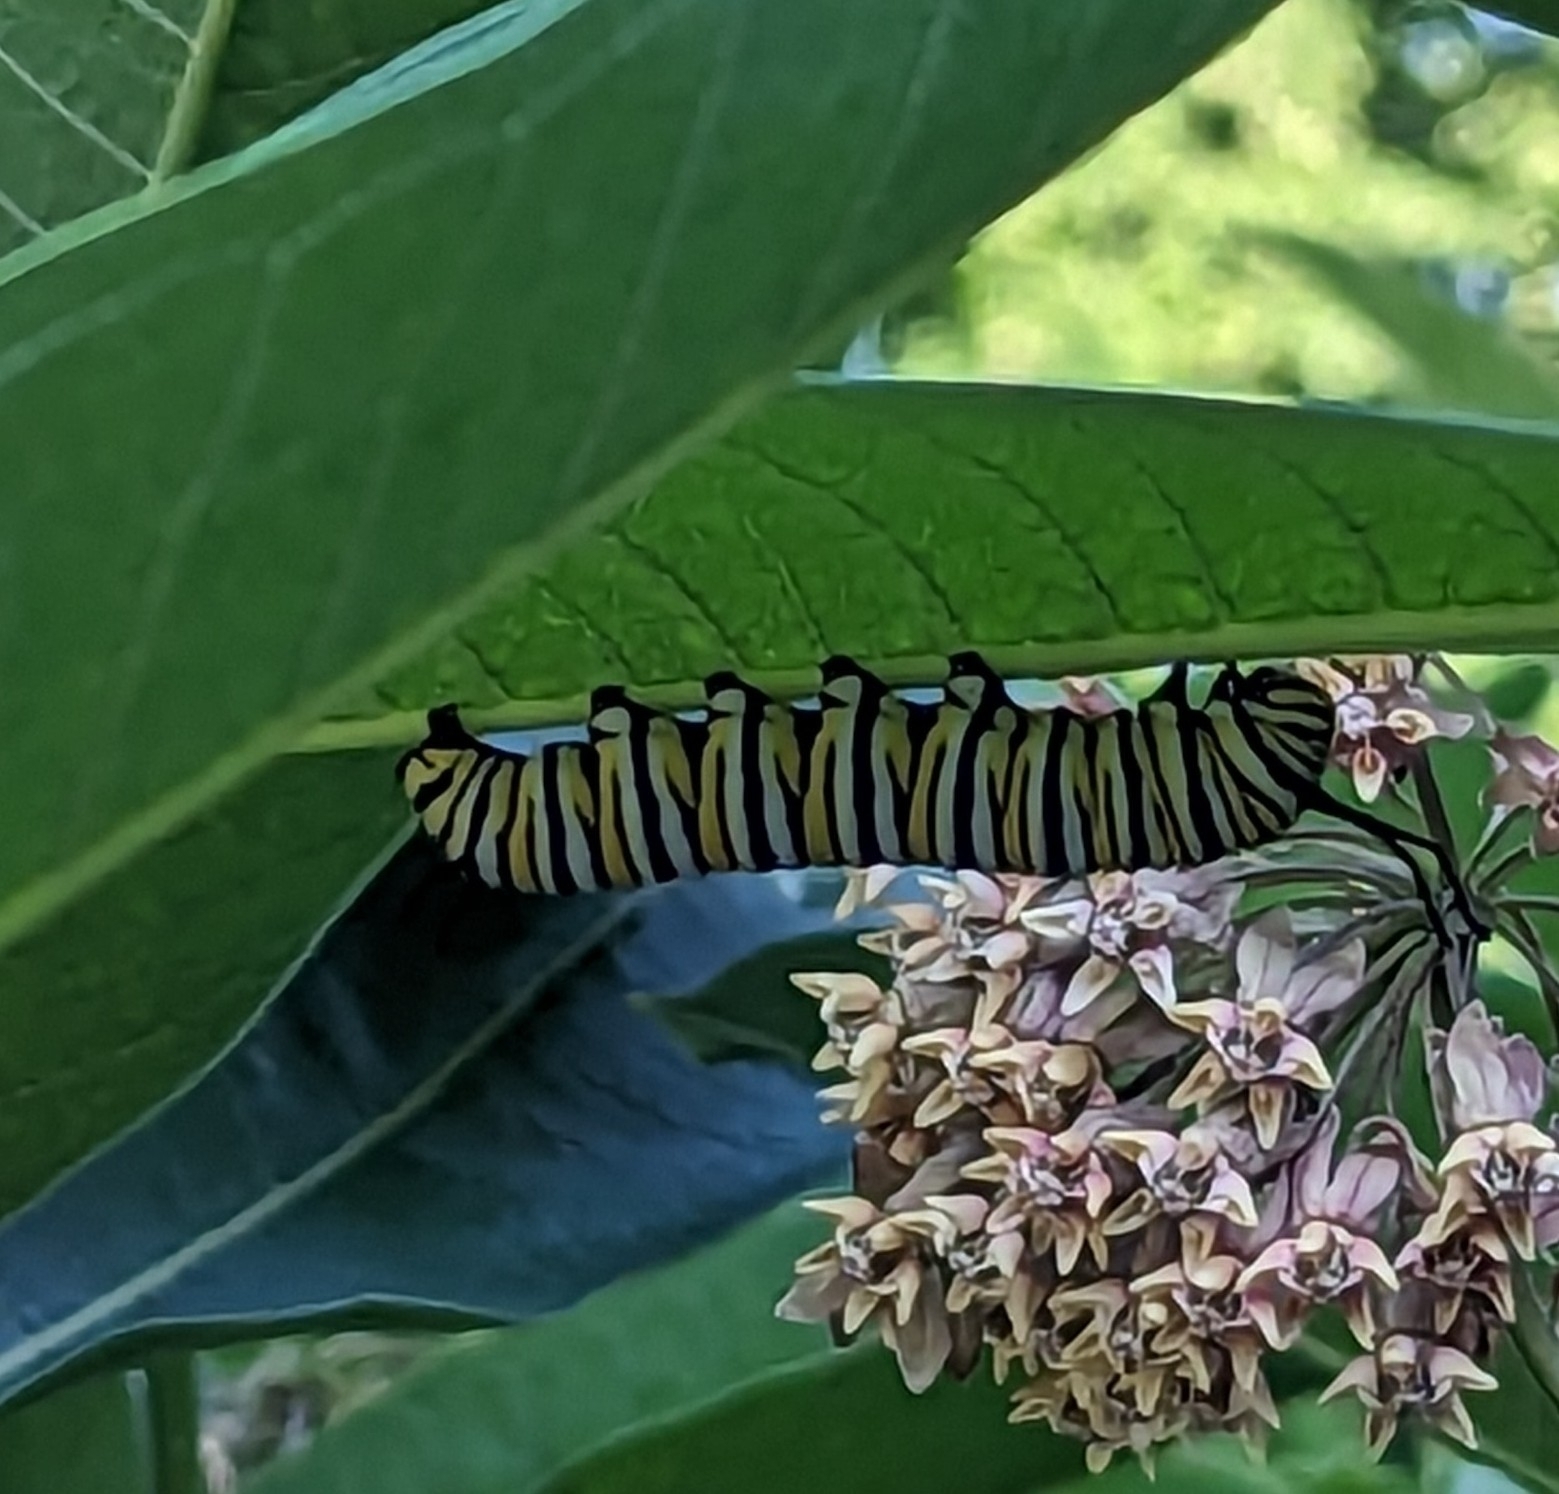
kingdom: Animalia
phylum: Arthropoda
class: Insecta
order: Lepidoptera
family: Nymphalidae
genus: Danaus
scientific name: Danaus plexippus
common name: Monarch
